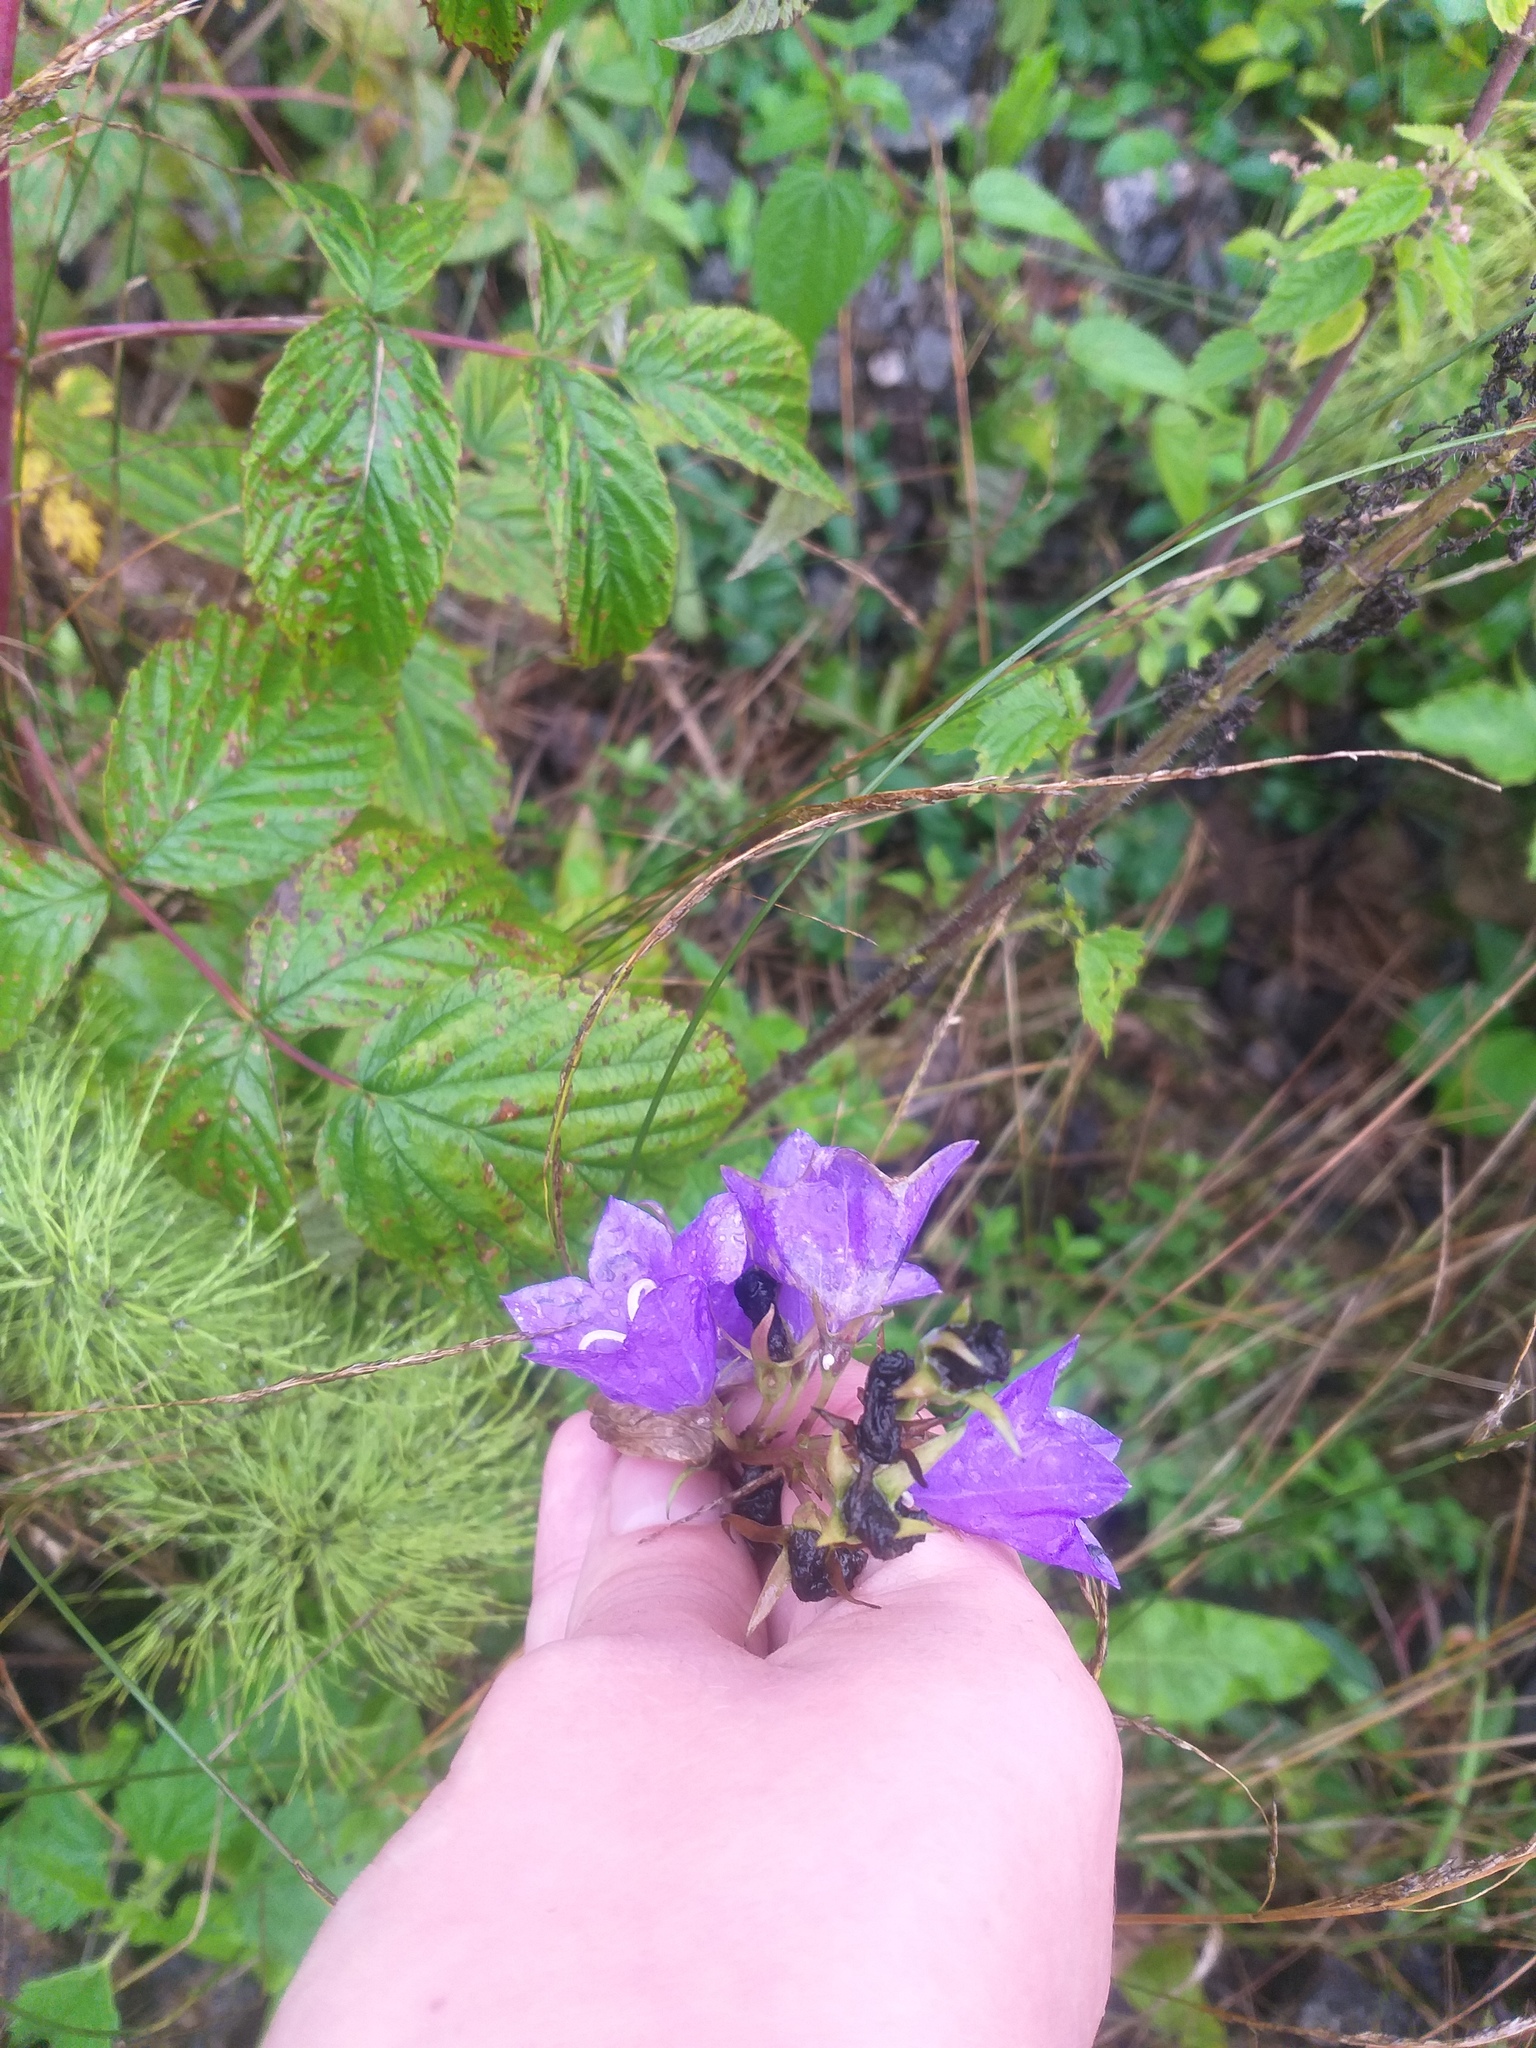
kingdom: Plantae
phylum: Tracheophyta
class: Magnoliopsida
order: Asterales
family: Campanulaceae
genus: Campanula
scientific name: Campanula persicifolia
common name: Peach-leaved bellflower
